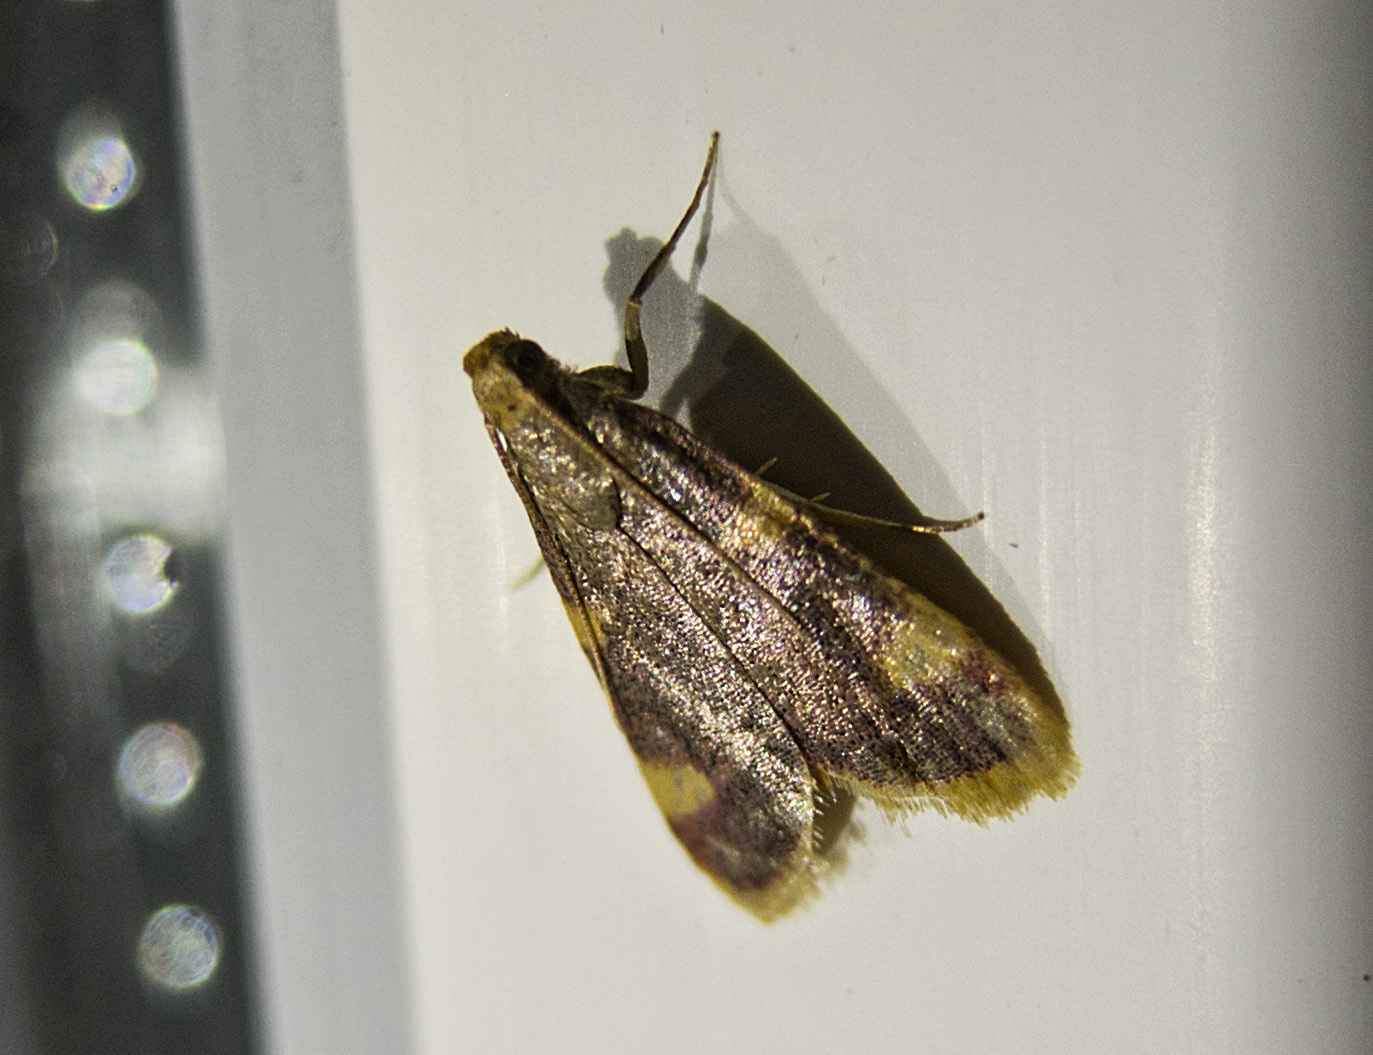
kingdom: Animalia
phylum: Arthropoda
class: Insecta
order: Lepidoptera
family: Pyralidae
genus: Hypsopygia
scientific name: Hypsopygia costalis
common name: Gold triangle
